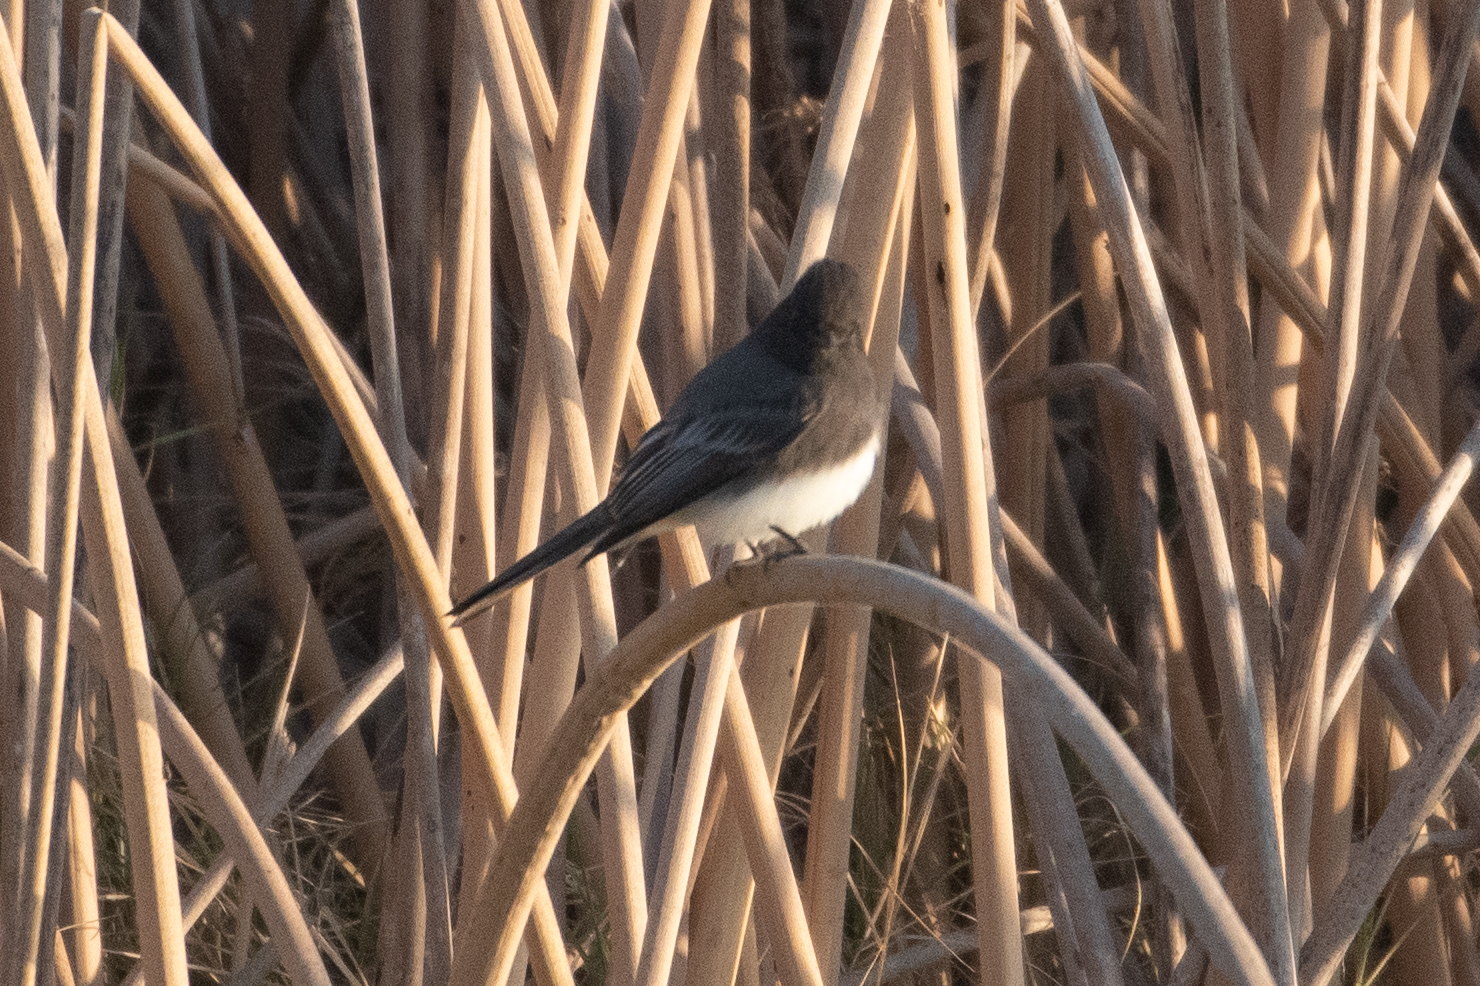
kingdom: Animalia
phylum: Chordata
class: Aves
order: Passeriformes
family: Tyrannidae
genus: Sayornis
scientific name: Sayornis nigricans
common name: Black phoebe
